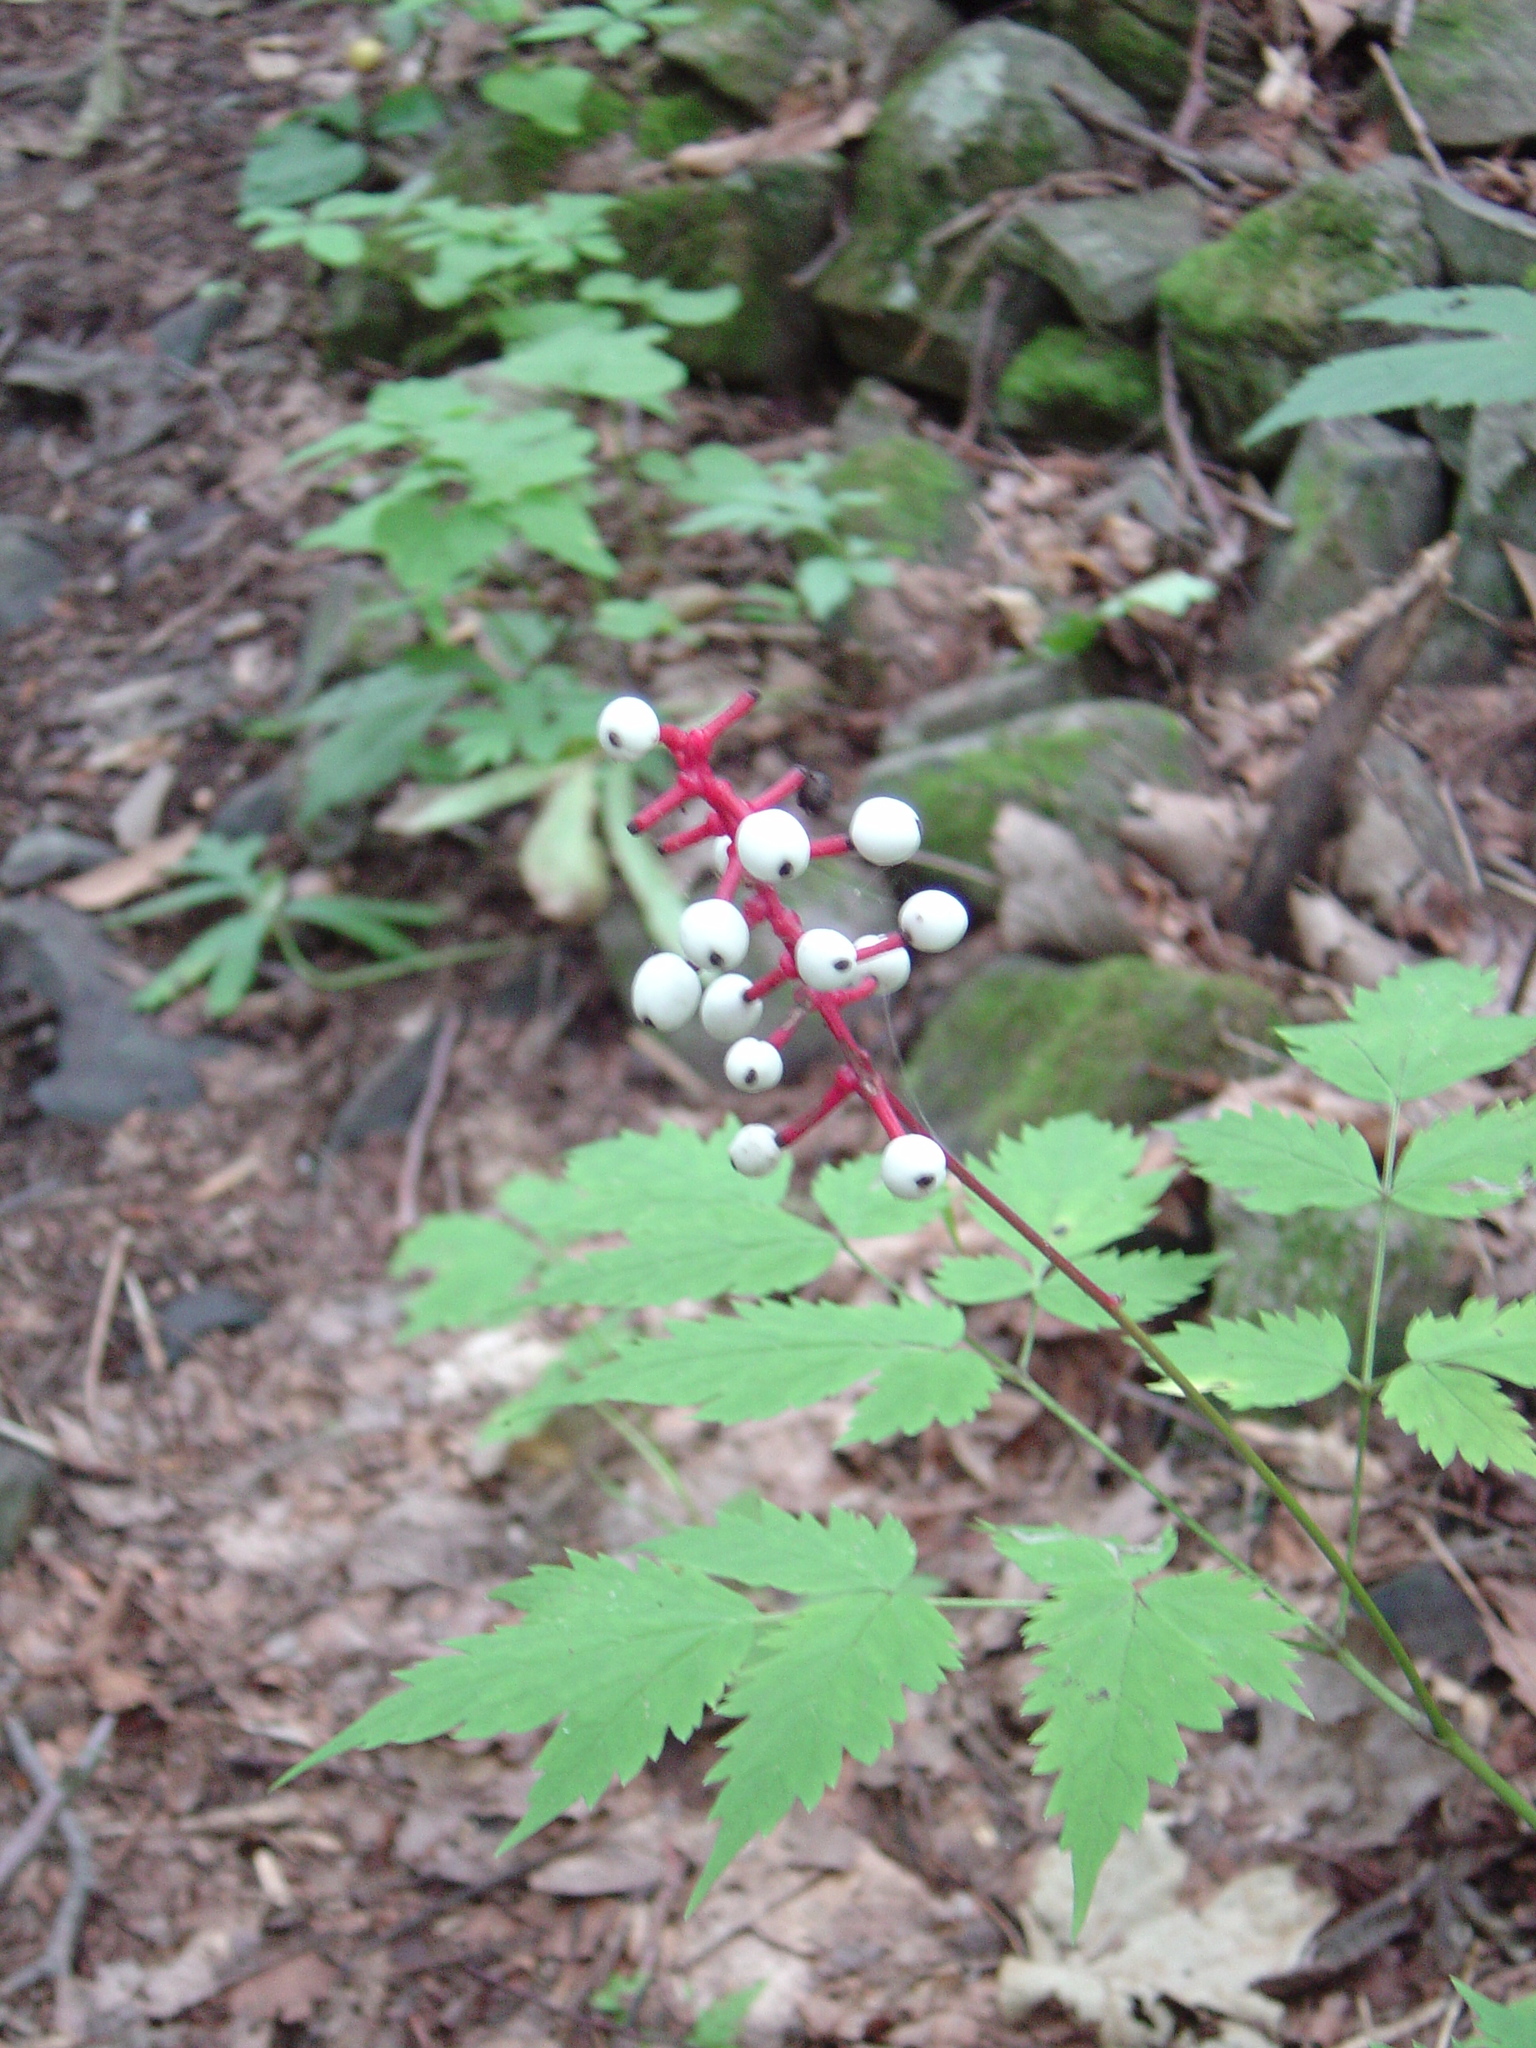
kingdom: Plantae
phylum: Tracheophyta
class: Magnoliopsida
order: Ranunculales
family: Ranunculaceae
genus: Actaea
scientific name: Actaea pachypoda
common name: Doll's-eyes
